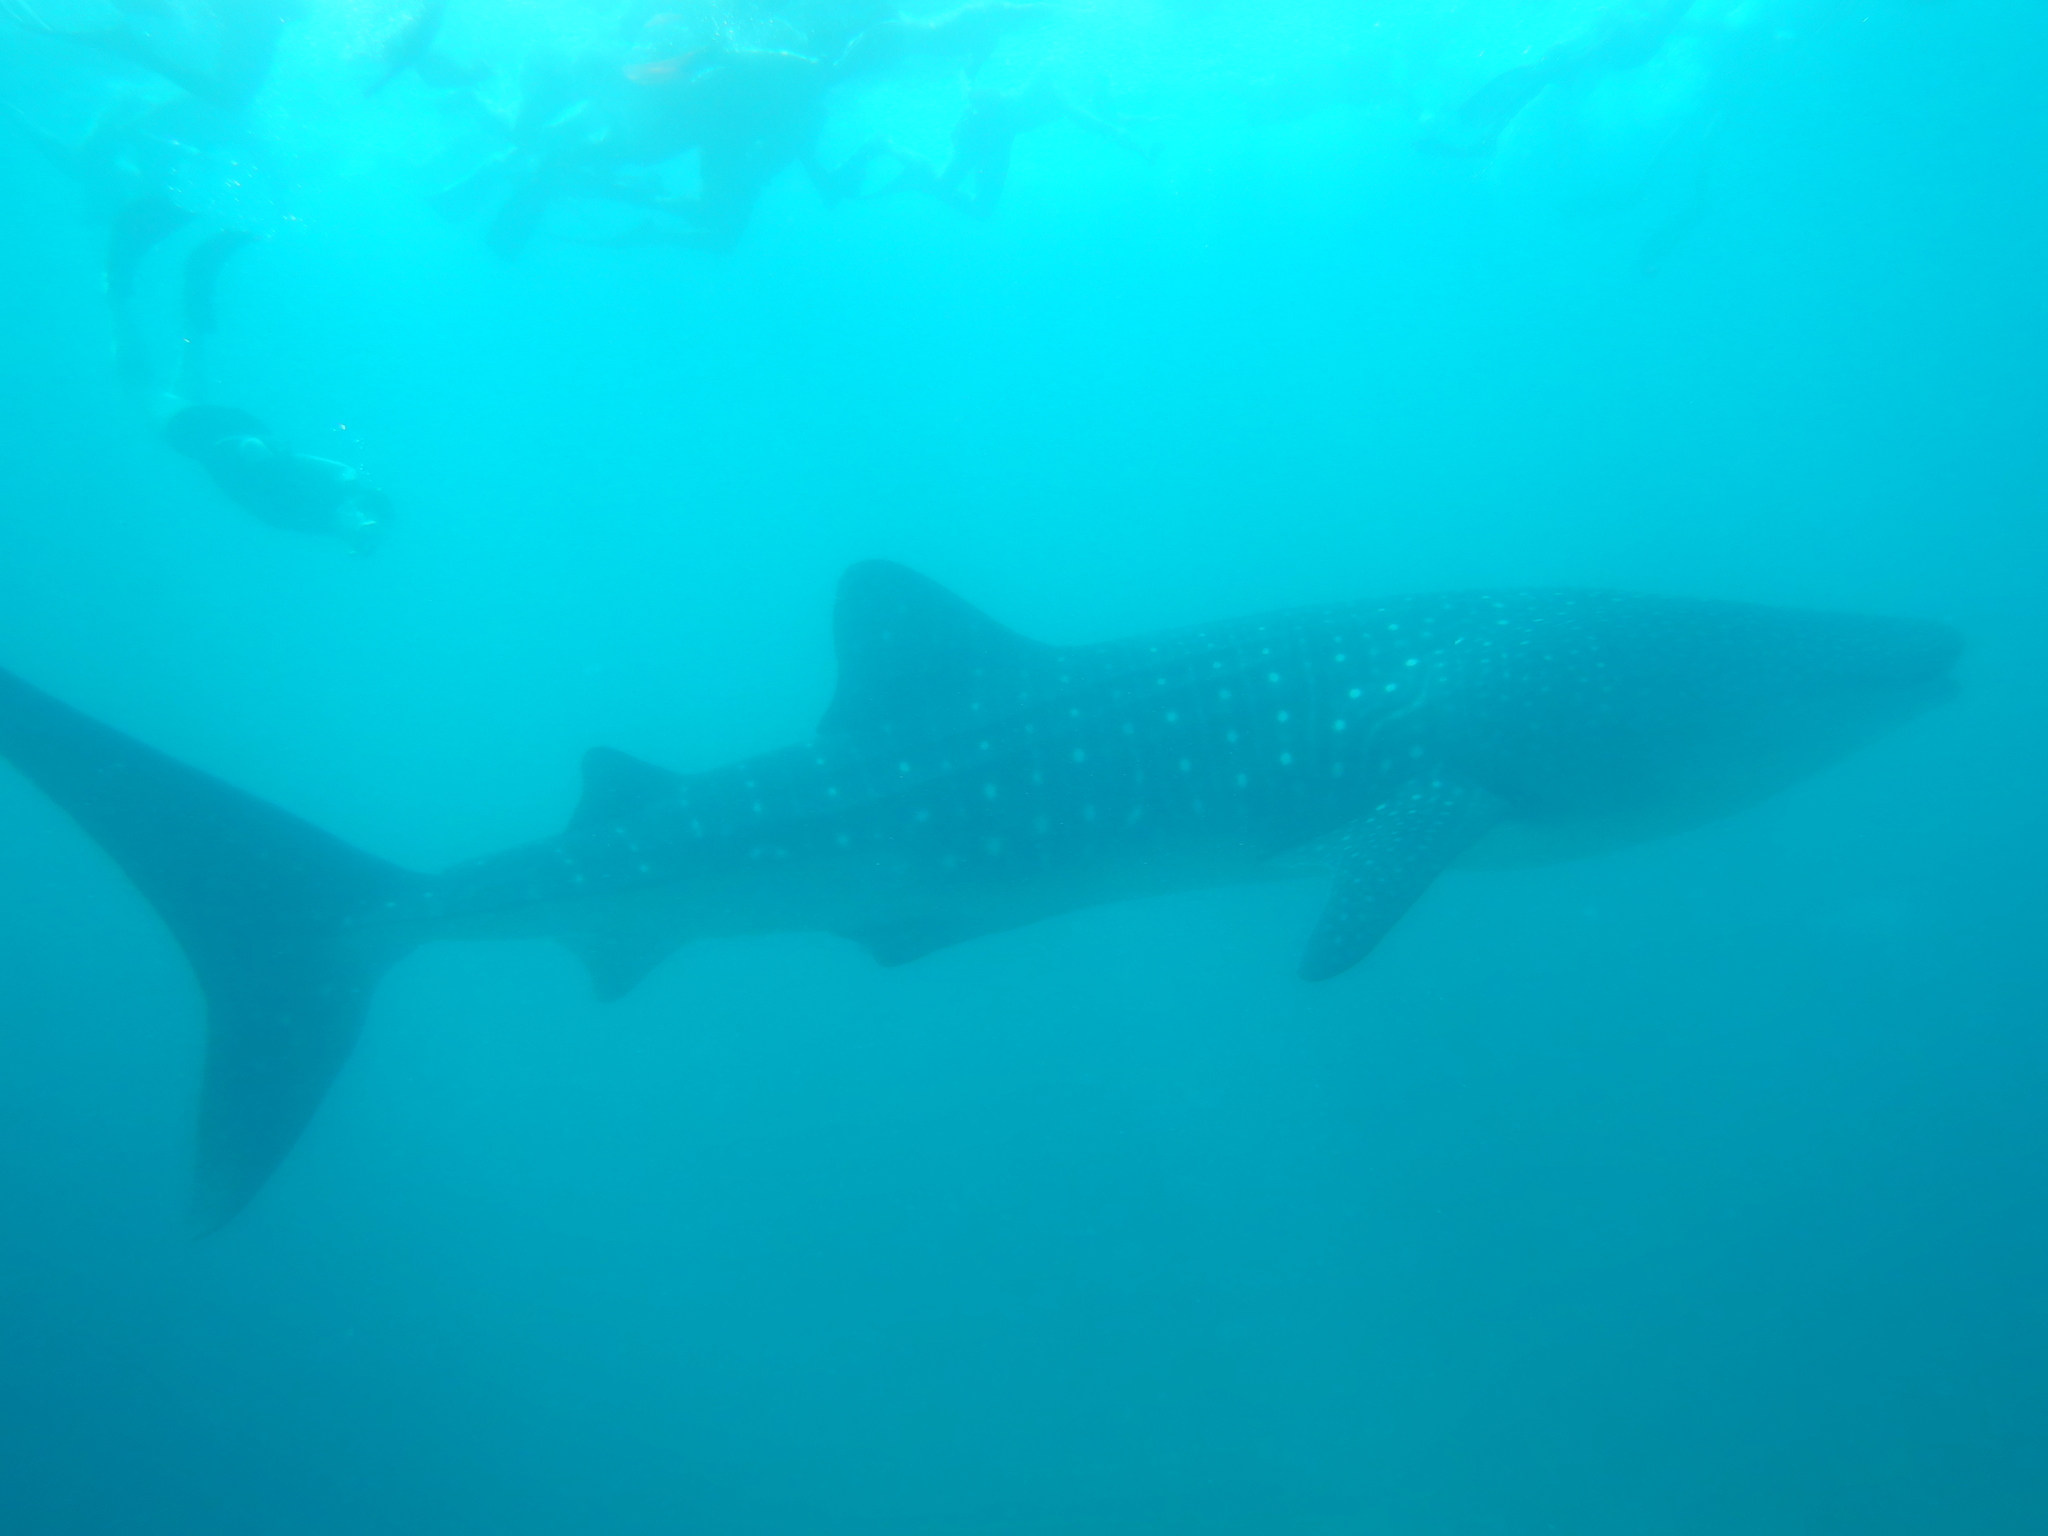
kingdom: Animalia
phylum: Chordata
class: Elasmobranchii
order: Orectolobiformes
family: Rhincodontidae
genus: Rhincodon
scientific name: Rhincodon typus
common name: Whale shark
